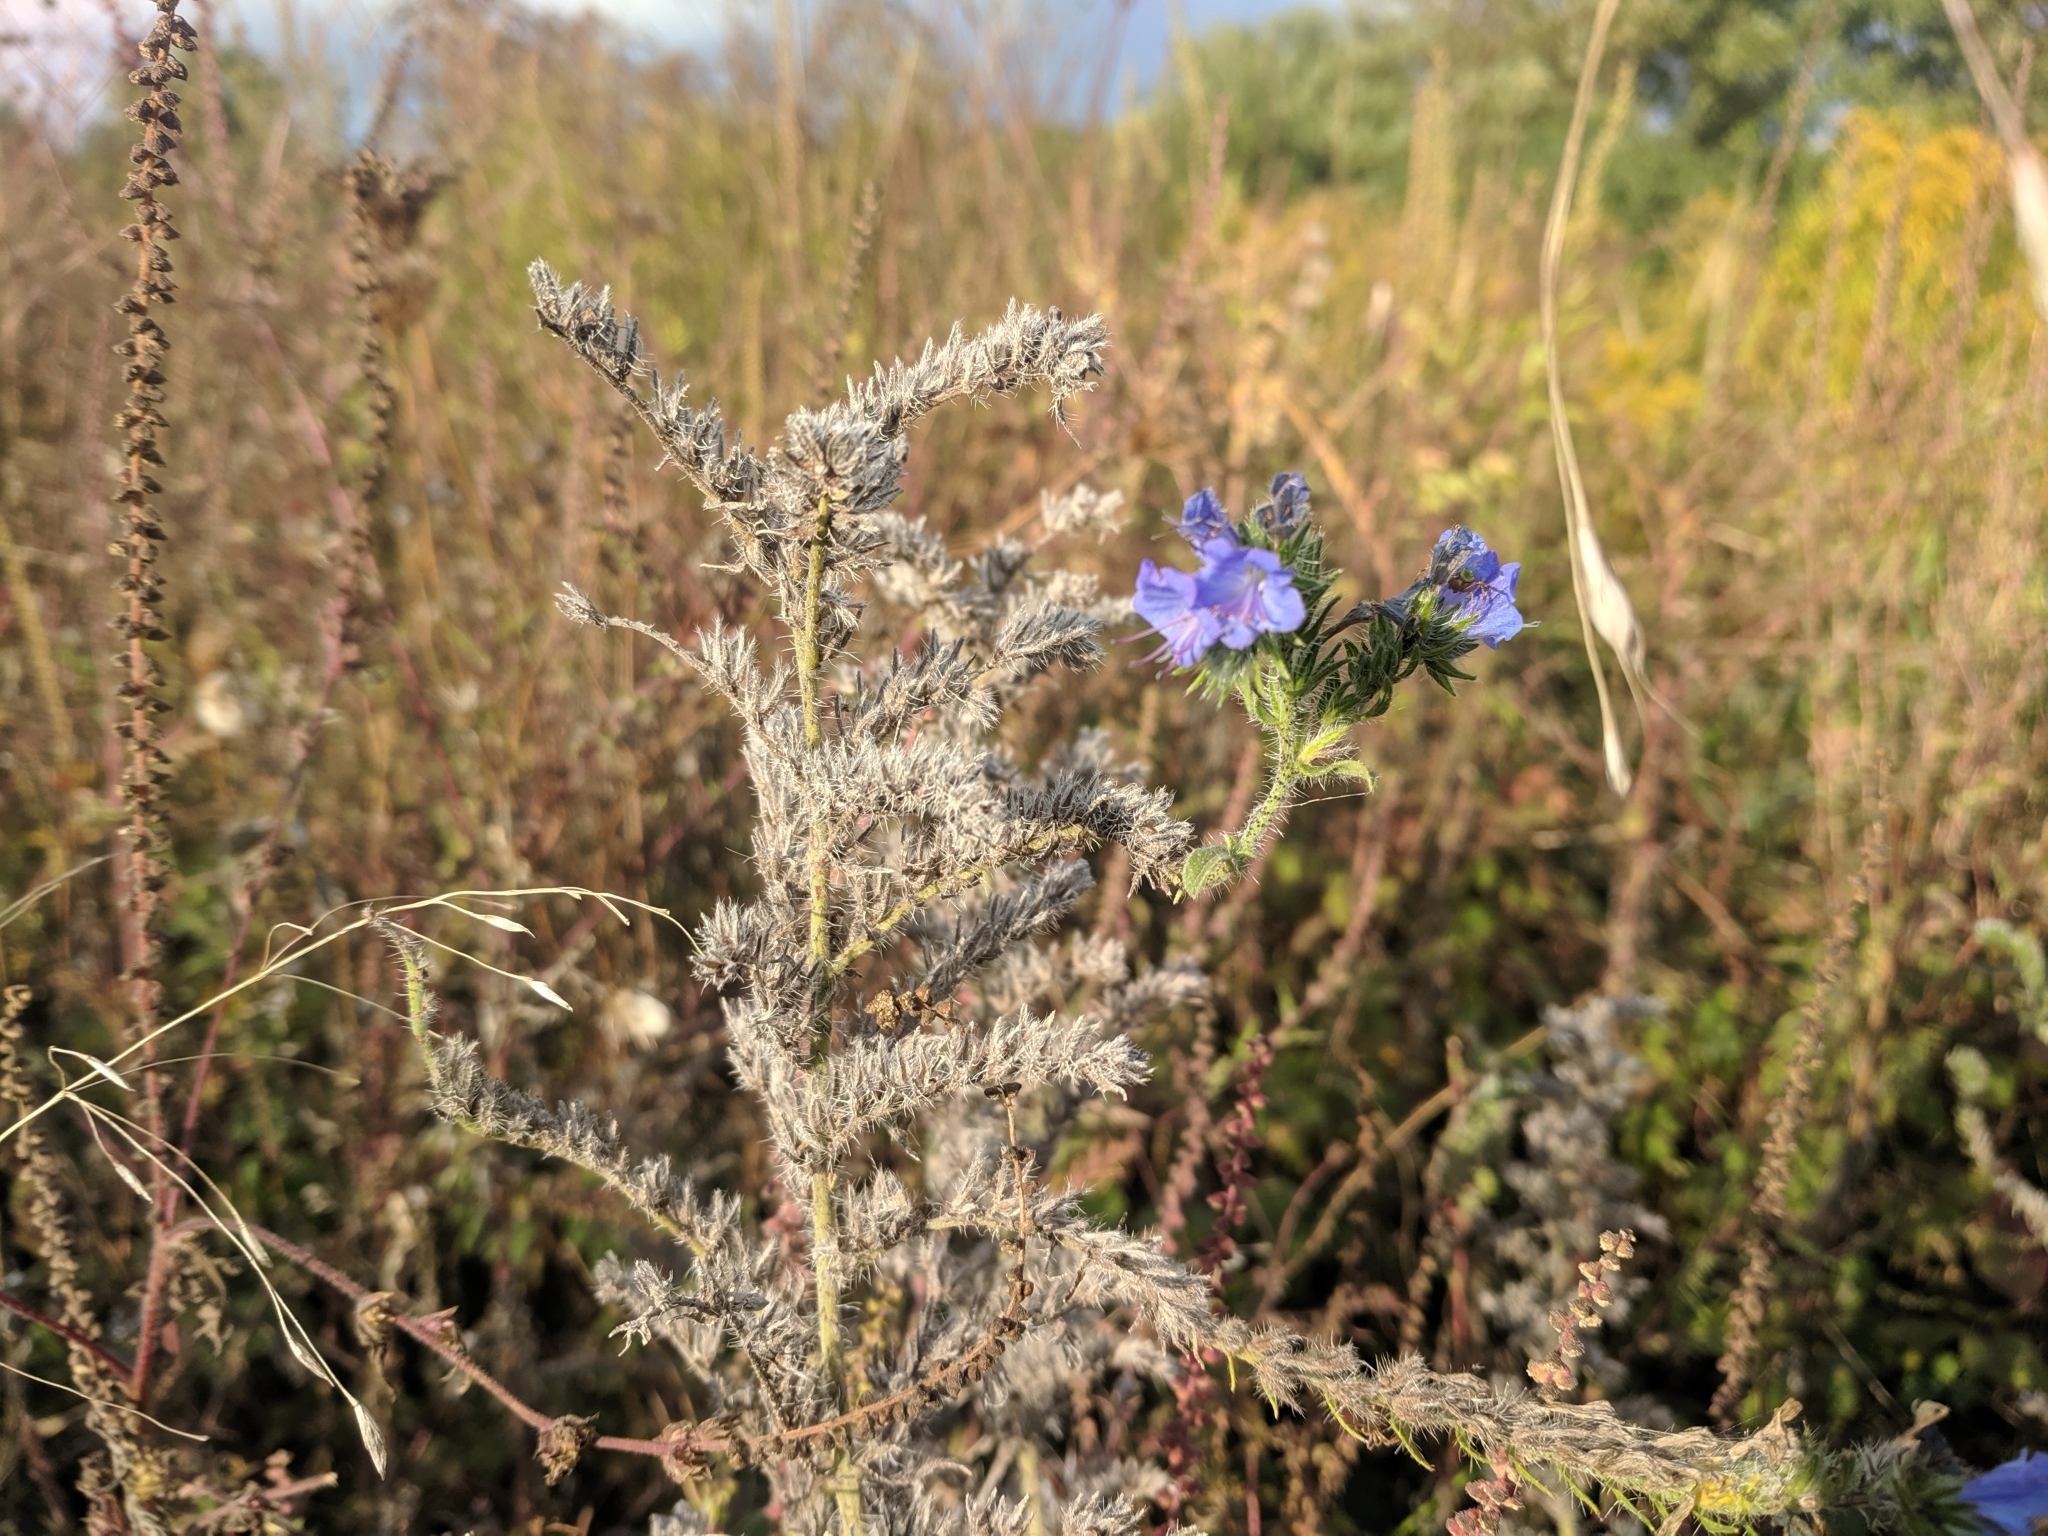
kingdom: Plantae
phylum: Tracheophyta
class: Magnoliopsida
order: Boraginales
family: Boraginaceae
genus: Echium
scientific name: Echium vulgare
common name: Common viper's bugloss
